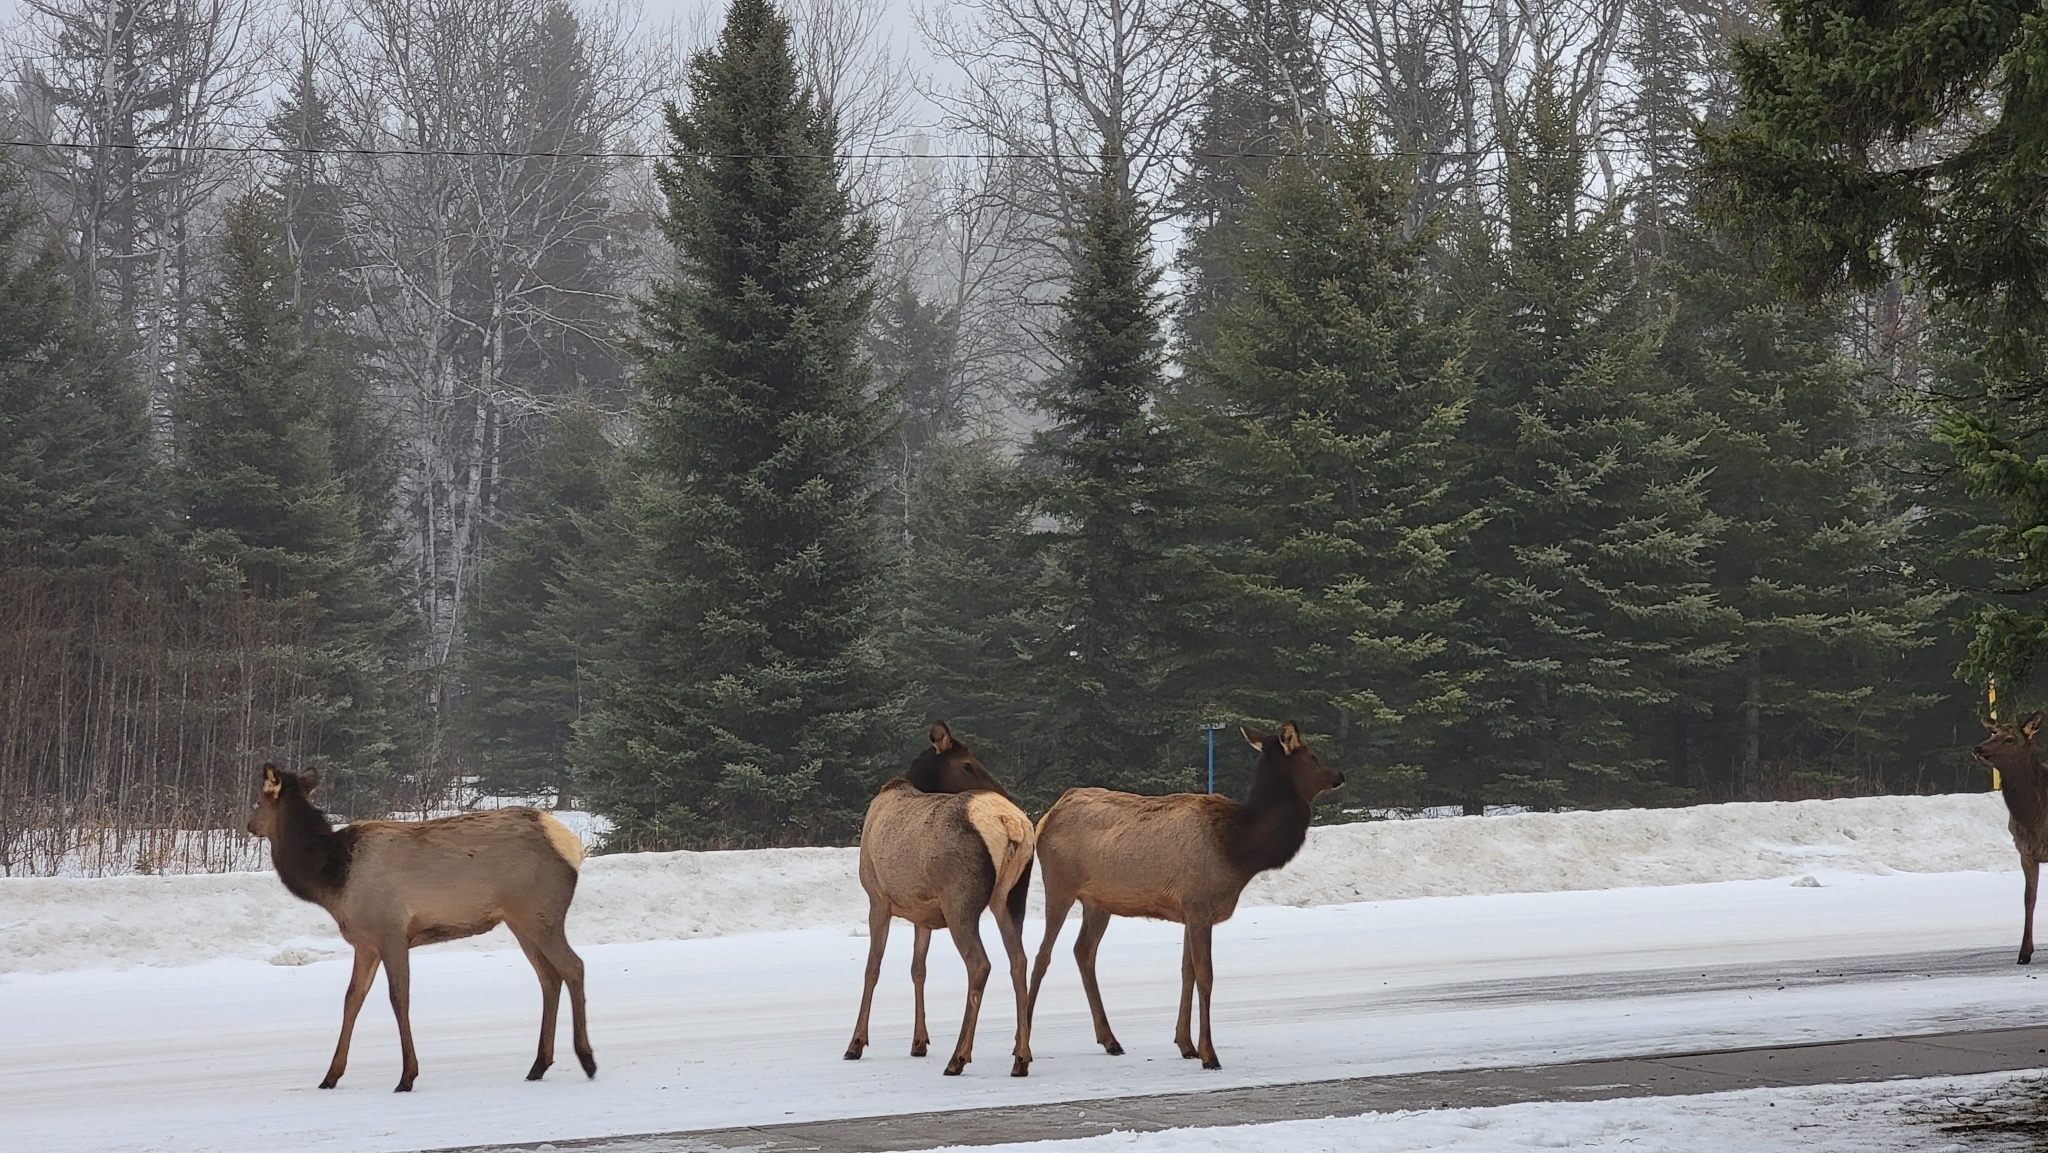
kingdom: Animalia
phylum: Chordata
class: Mammalia
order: Artiodactyla
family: Cervidae
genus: Cervus
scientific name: Cervus elaphus
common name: Red deer
